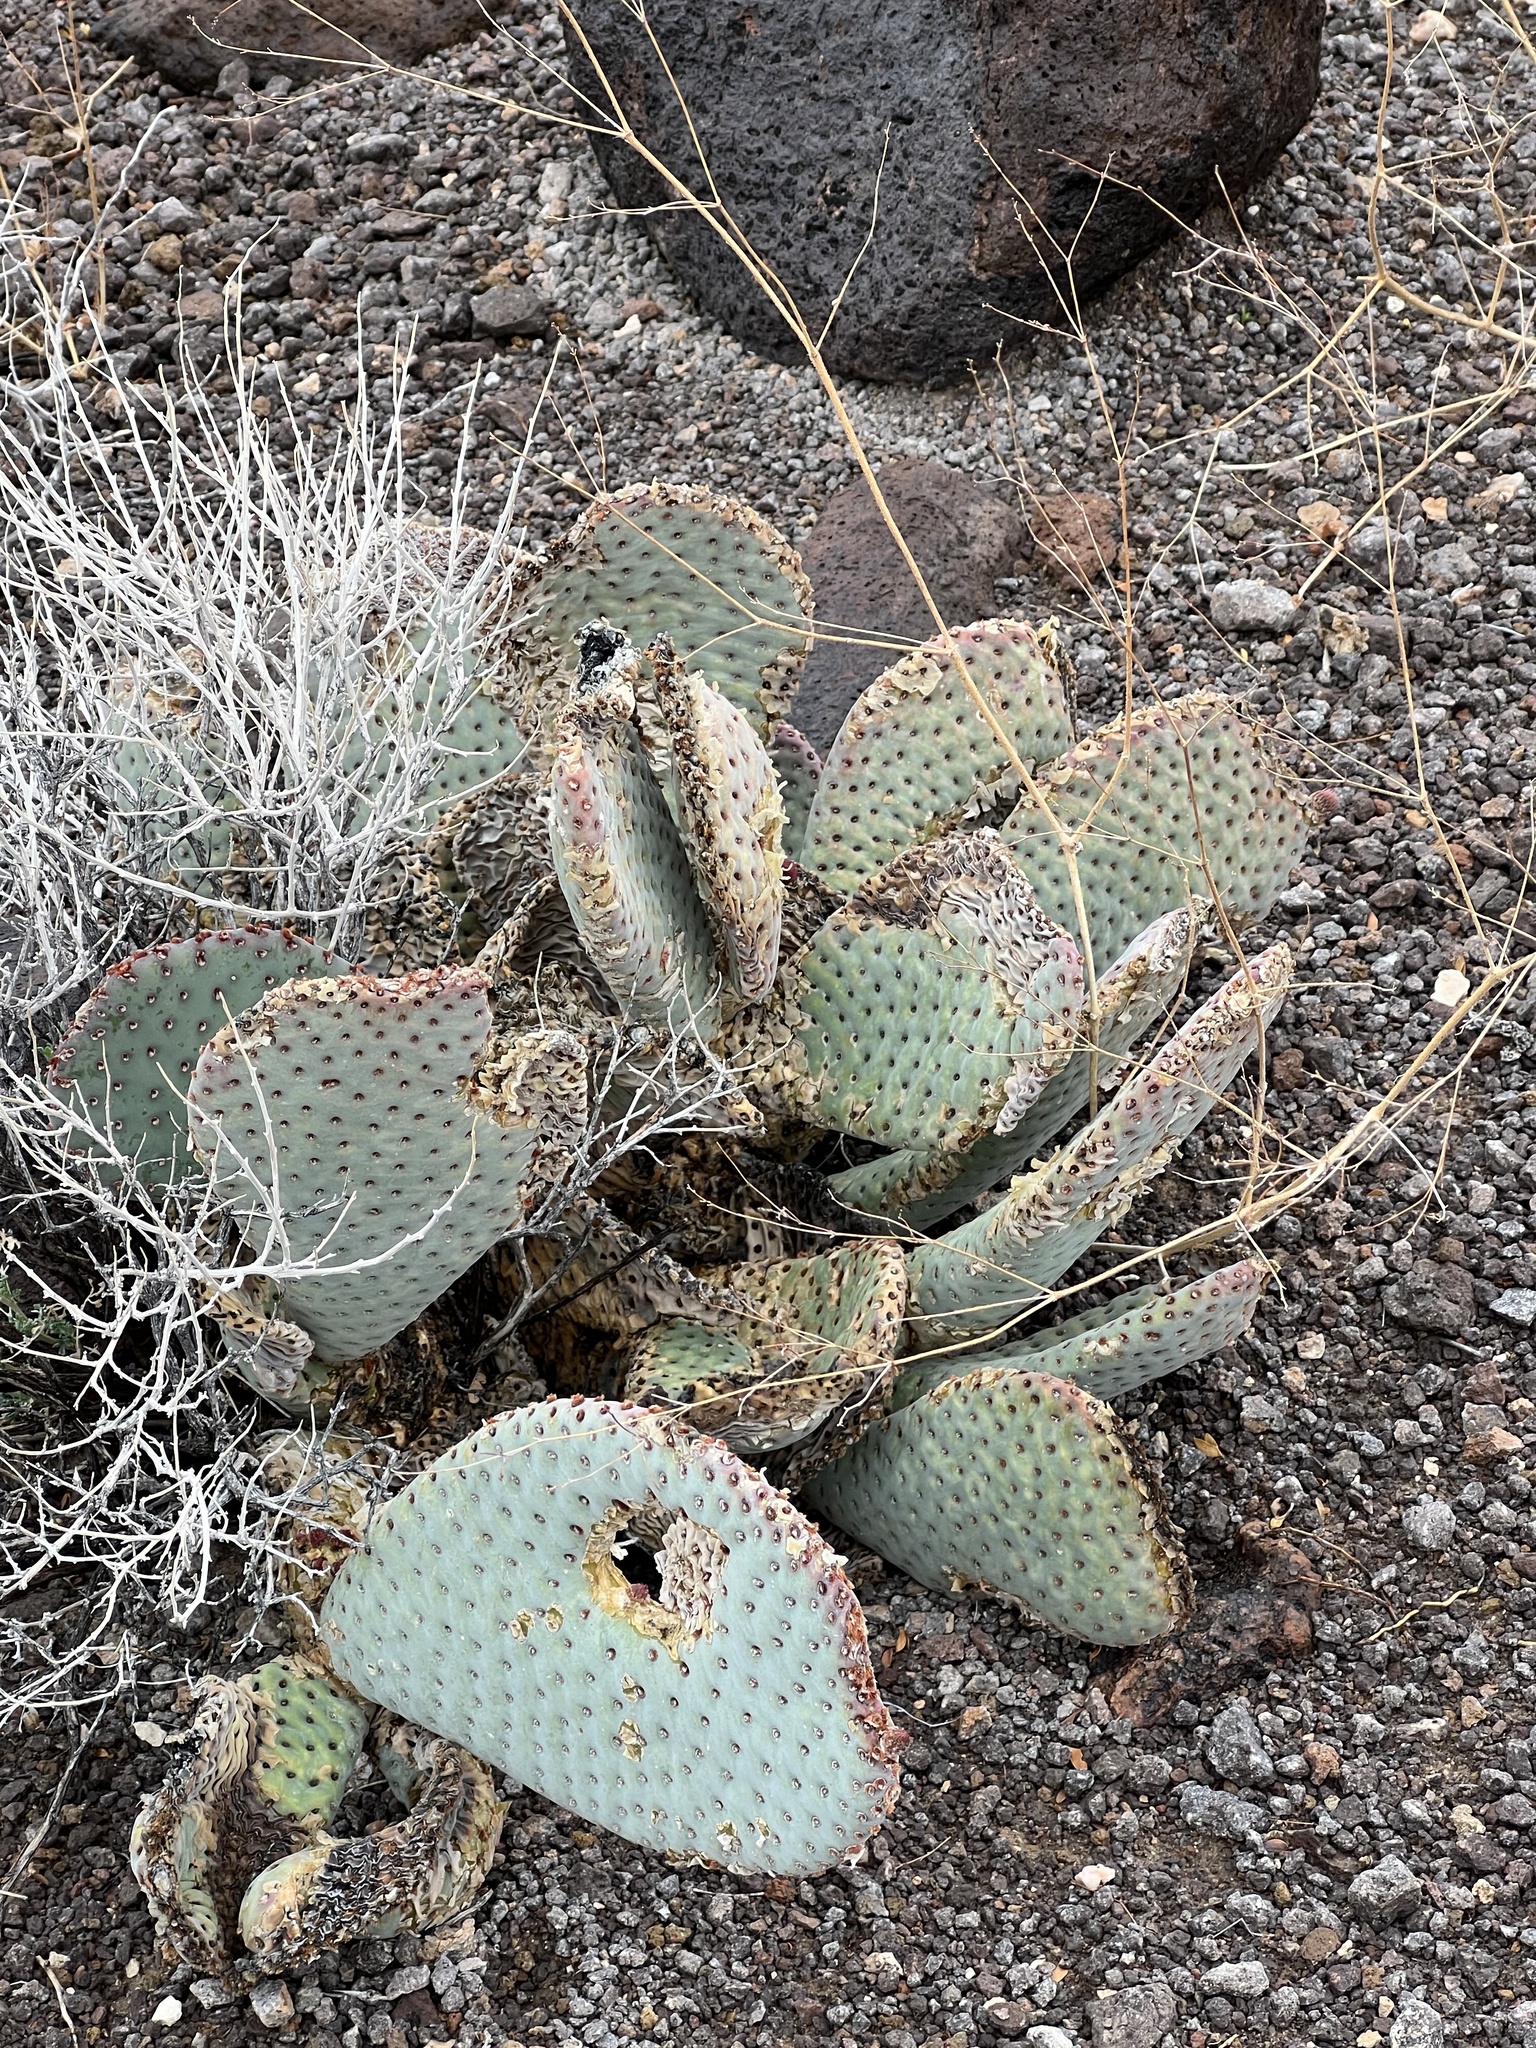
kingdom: Plantae
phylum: Tracheophyta
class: Magnoliopsida
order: Caryophyllales
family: Cactaceae
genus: Opuntia
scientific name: Opuntia basilaris
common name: Beavertail prickly-pear
